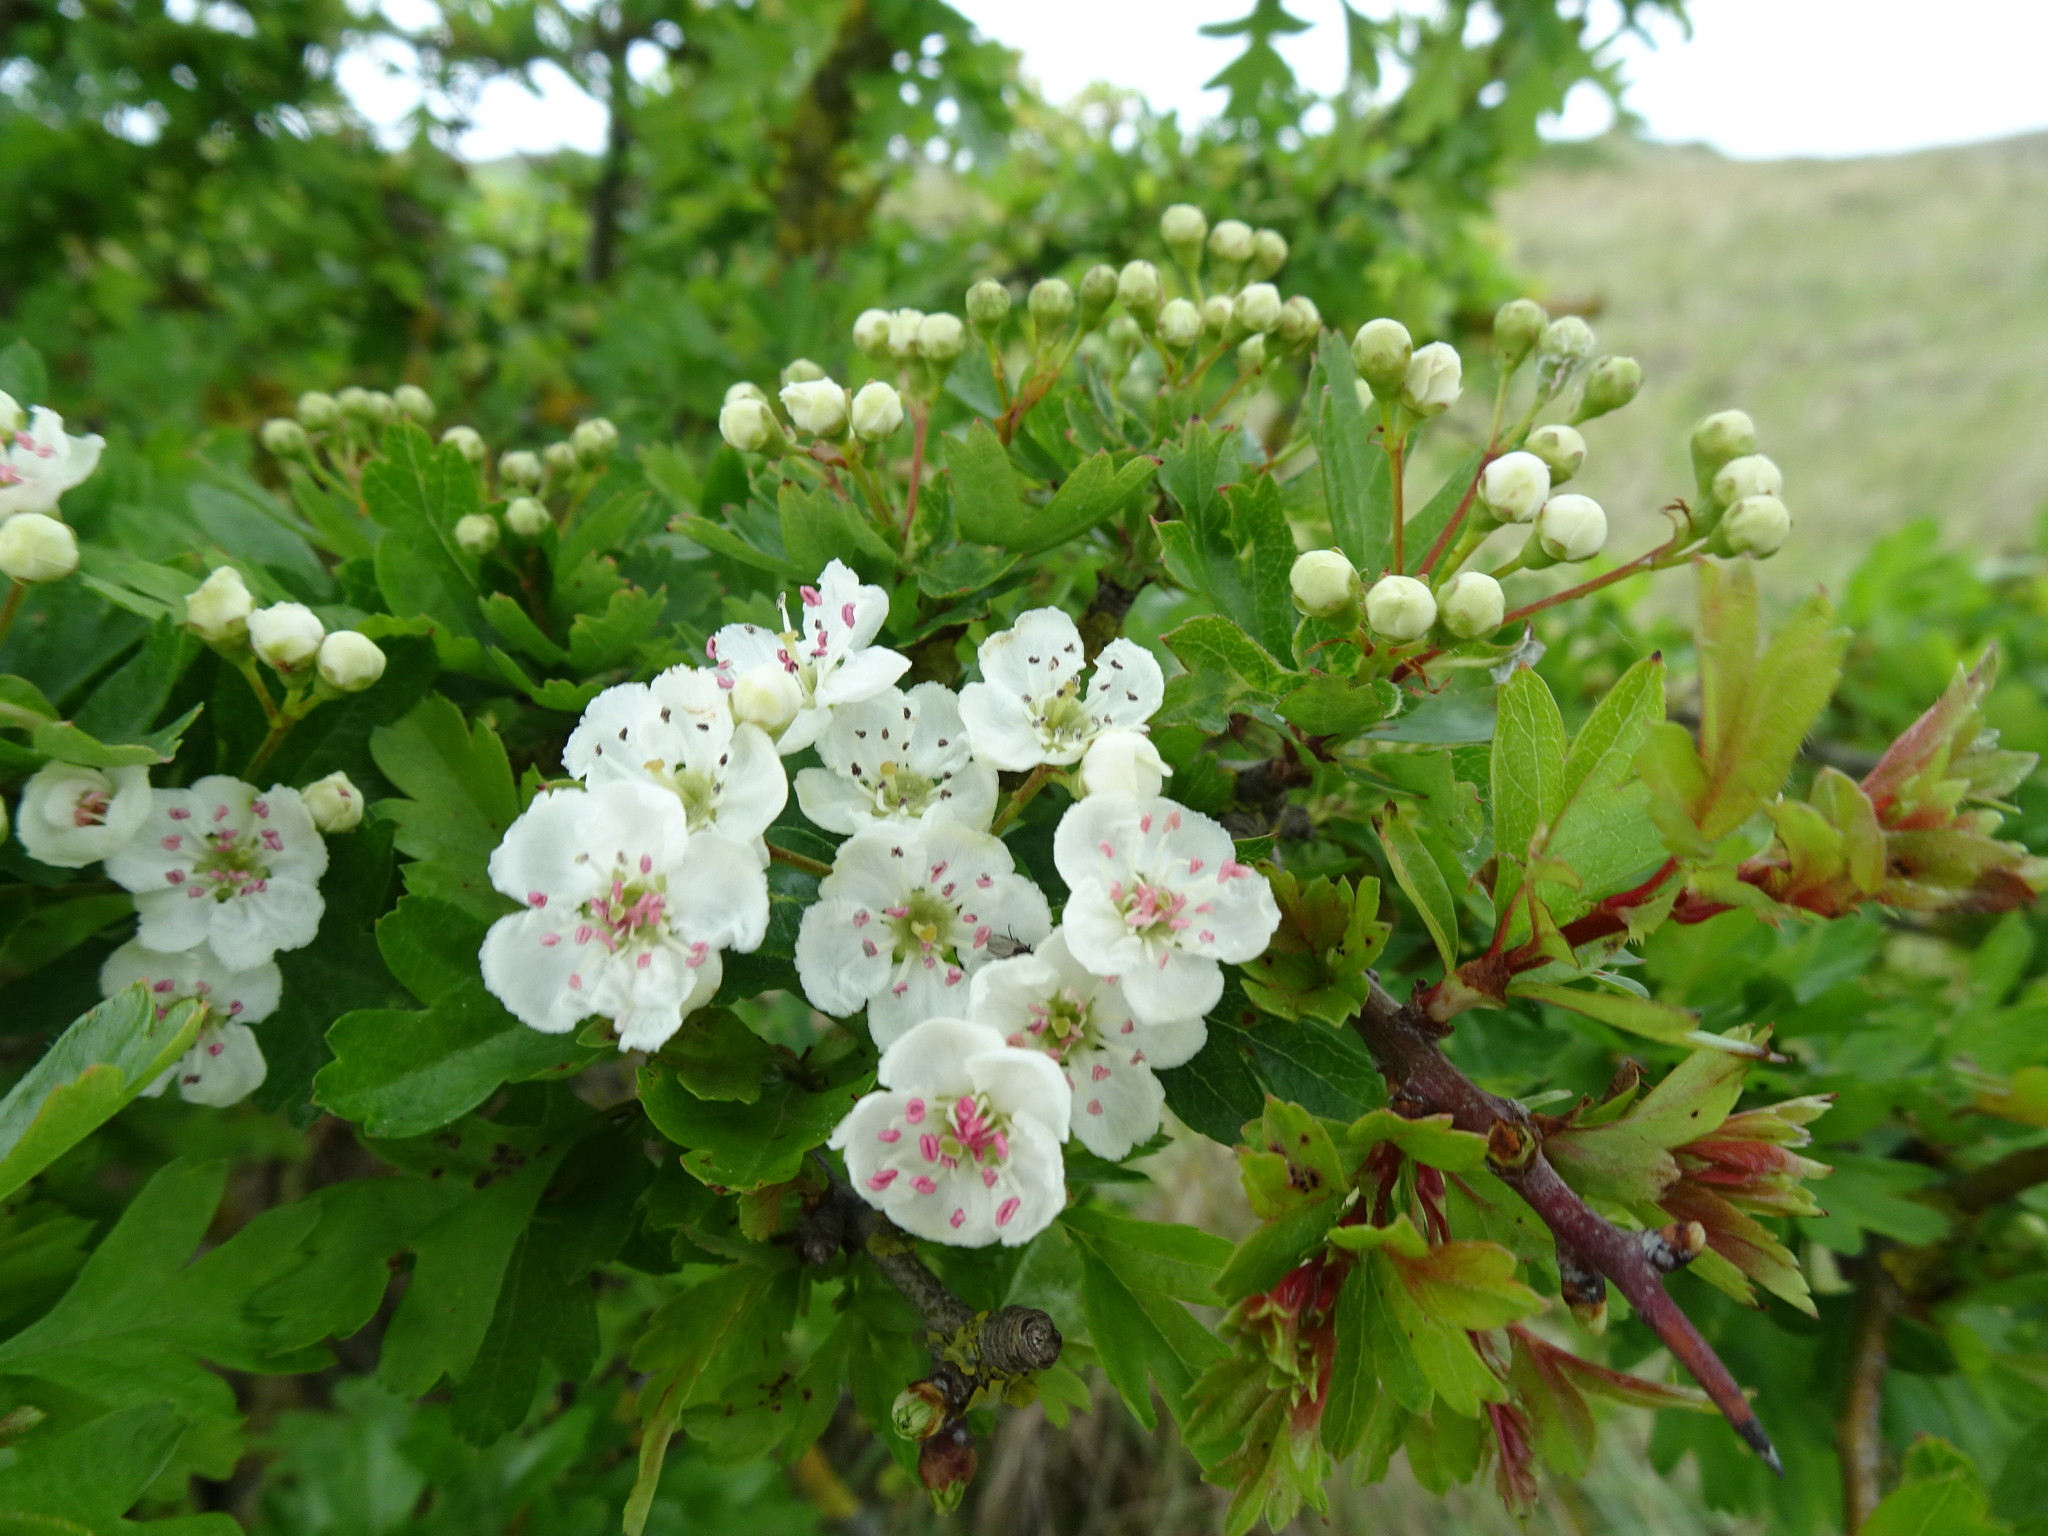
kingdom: Plantae
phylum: Tracheophyta
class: Magnoliopsida
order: Rosales
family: Rosaceae
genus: Crataegus
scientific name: Crataegus monogyna
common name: Hawthorn
